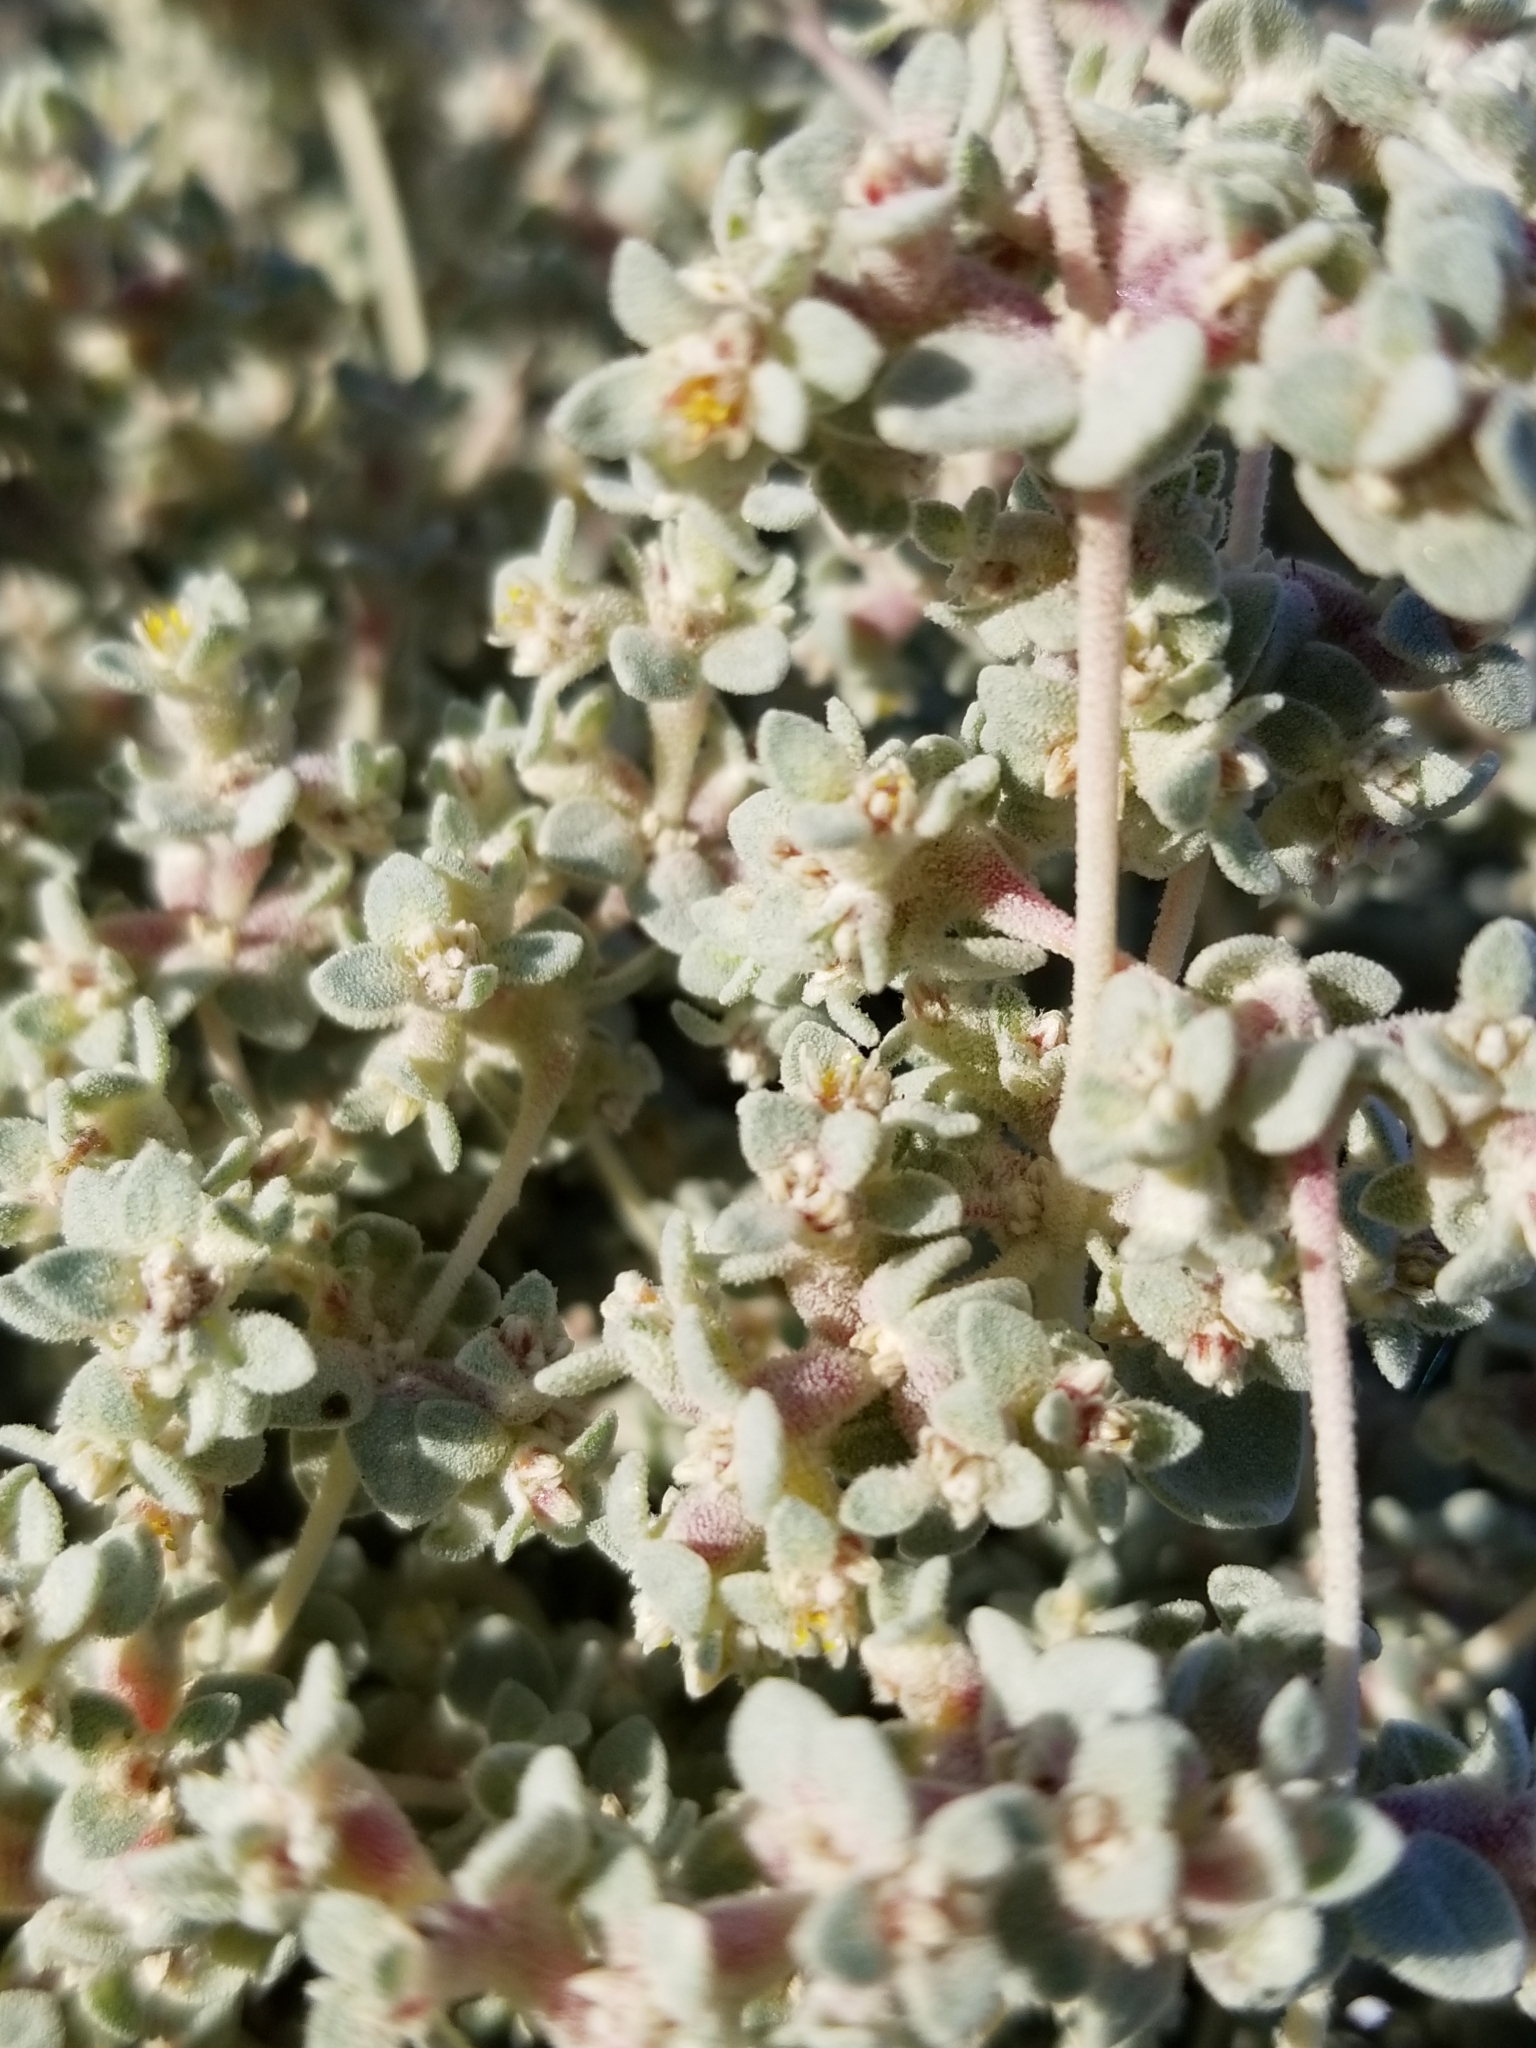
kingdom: Plantae
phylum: Tracheophyta
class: Magnoliopsida
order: Caryophyllales
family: Amaranthaceae
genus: Tidestromia
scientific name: Tidestromia suffruticosa
